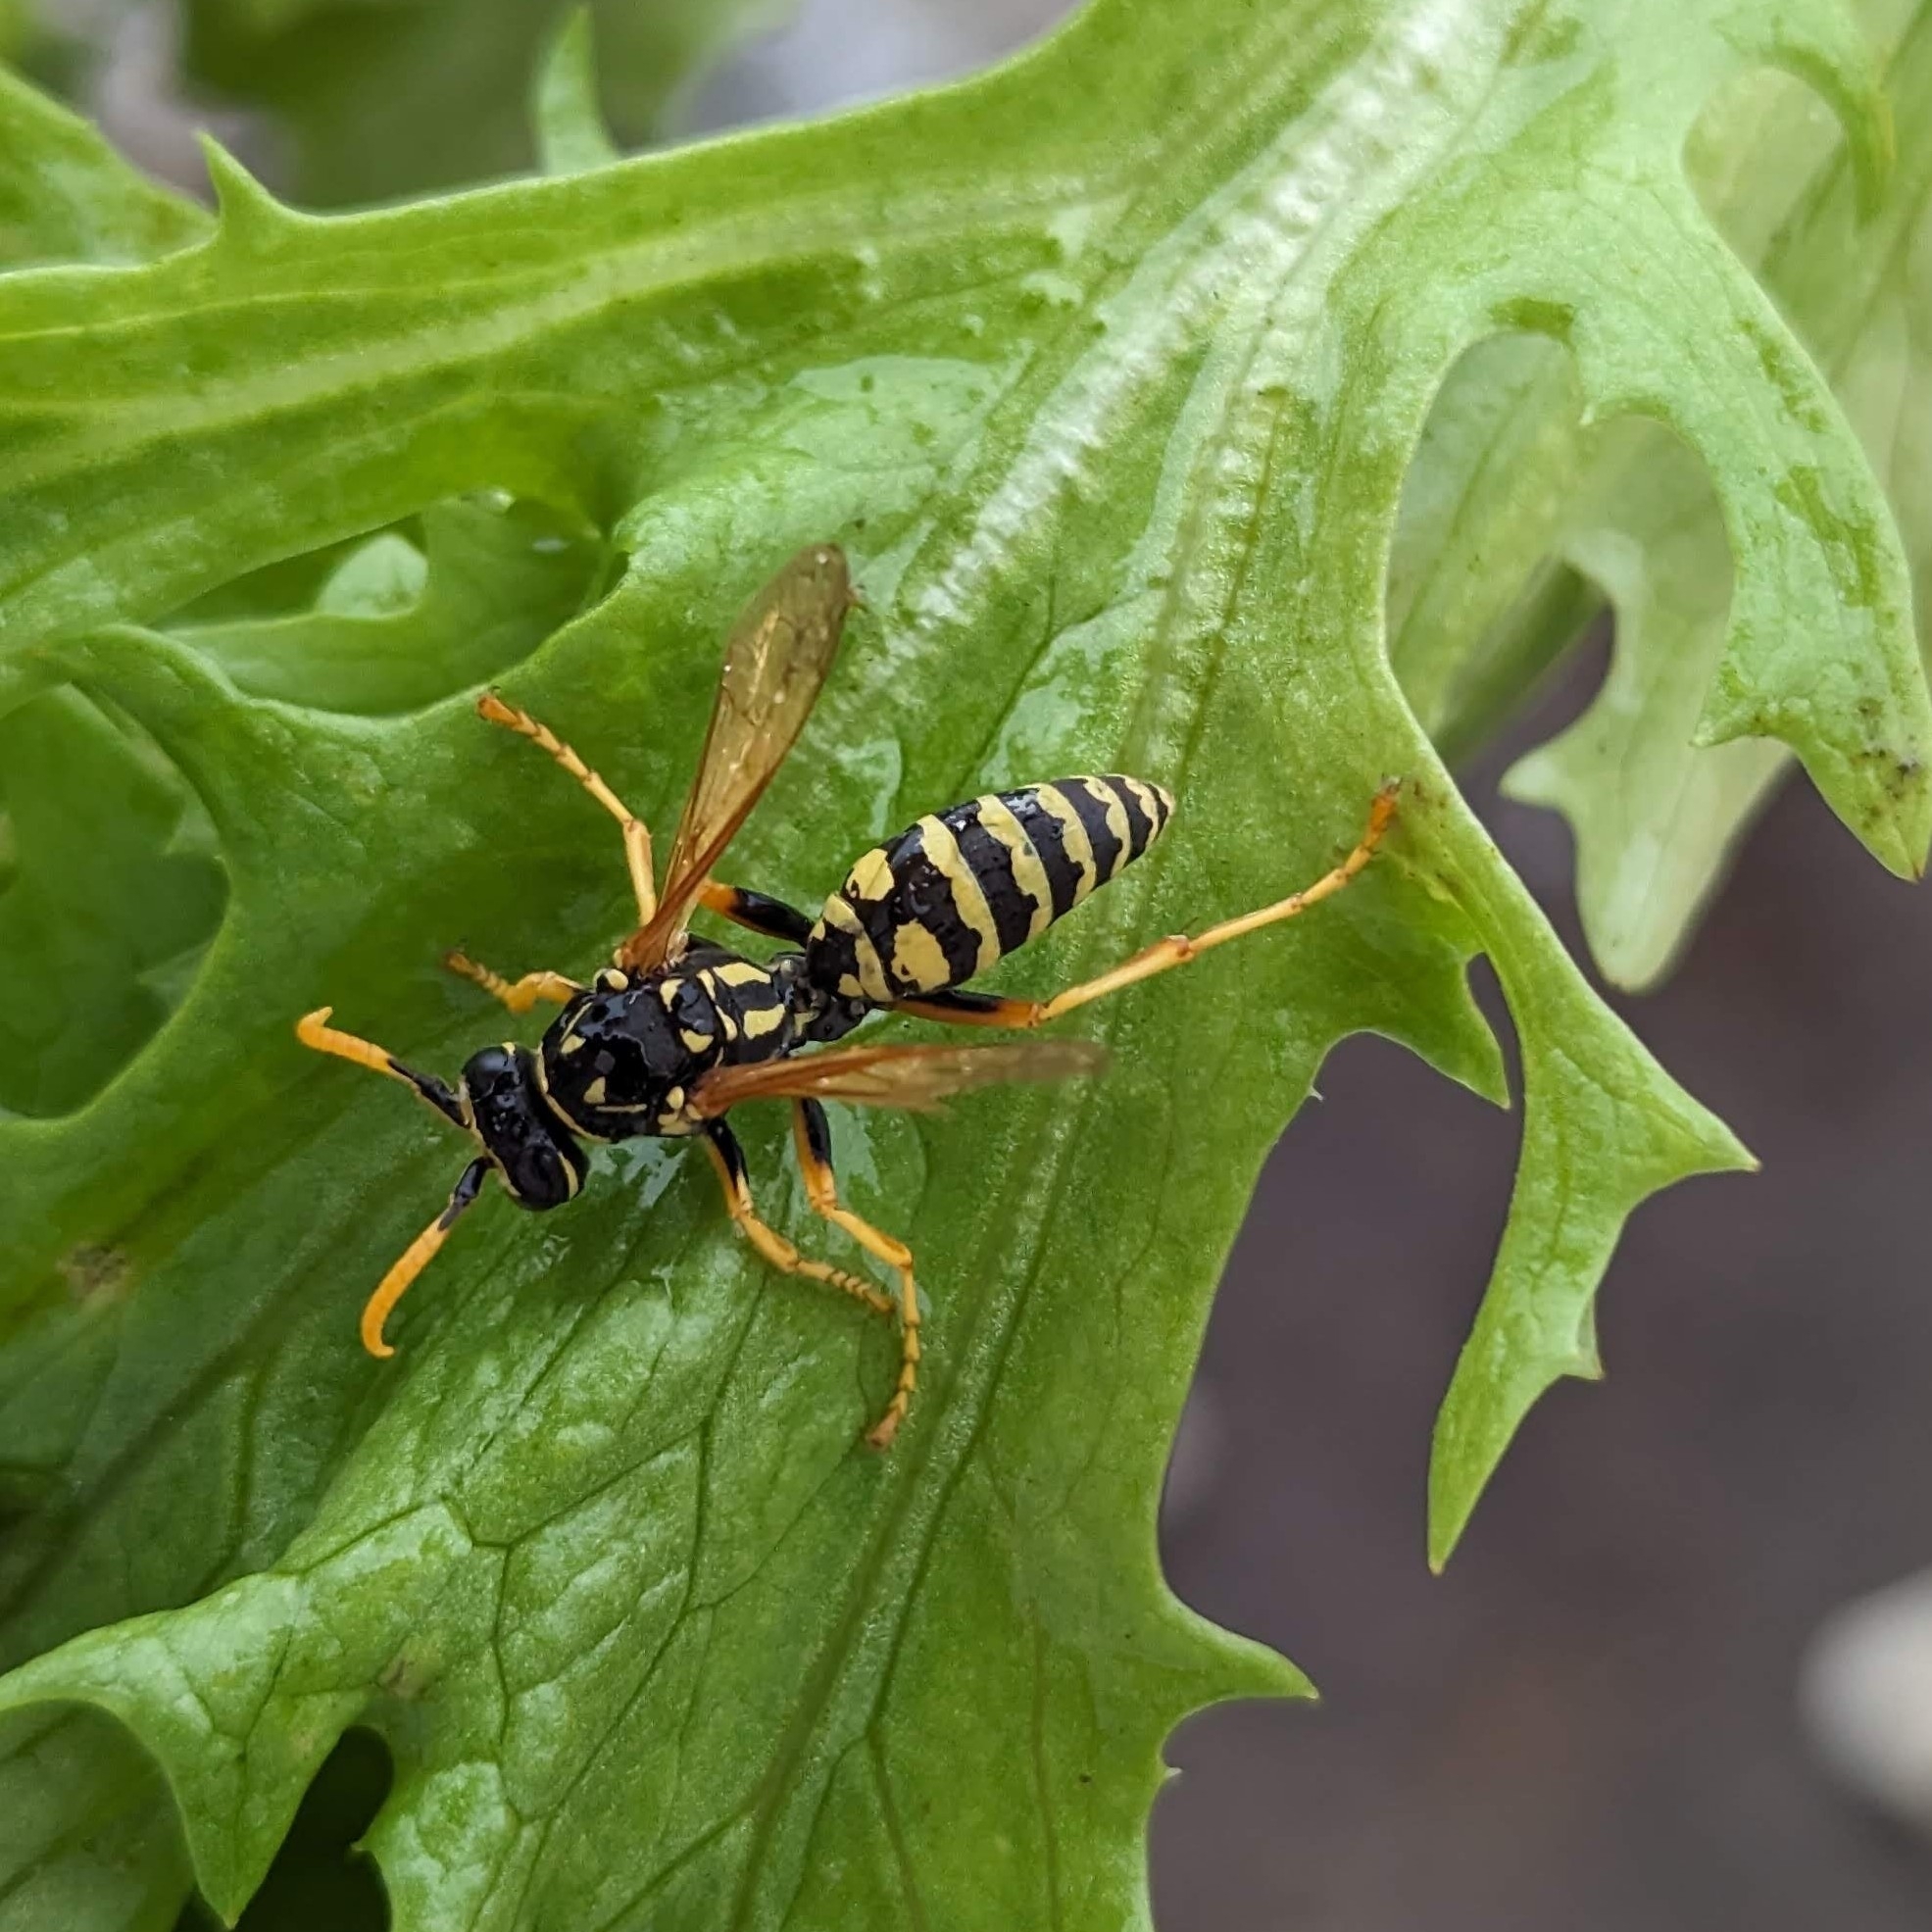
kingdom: Animalia
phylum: Arthropoda
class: Insecta
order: Hymenoptera
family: Eumenidae
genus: Polistes
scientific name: Polistes dominula
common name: Paper wasp
